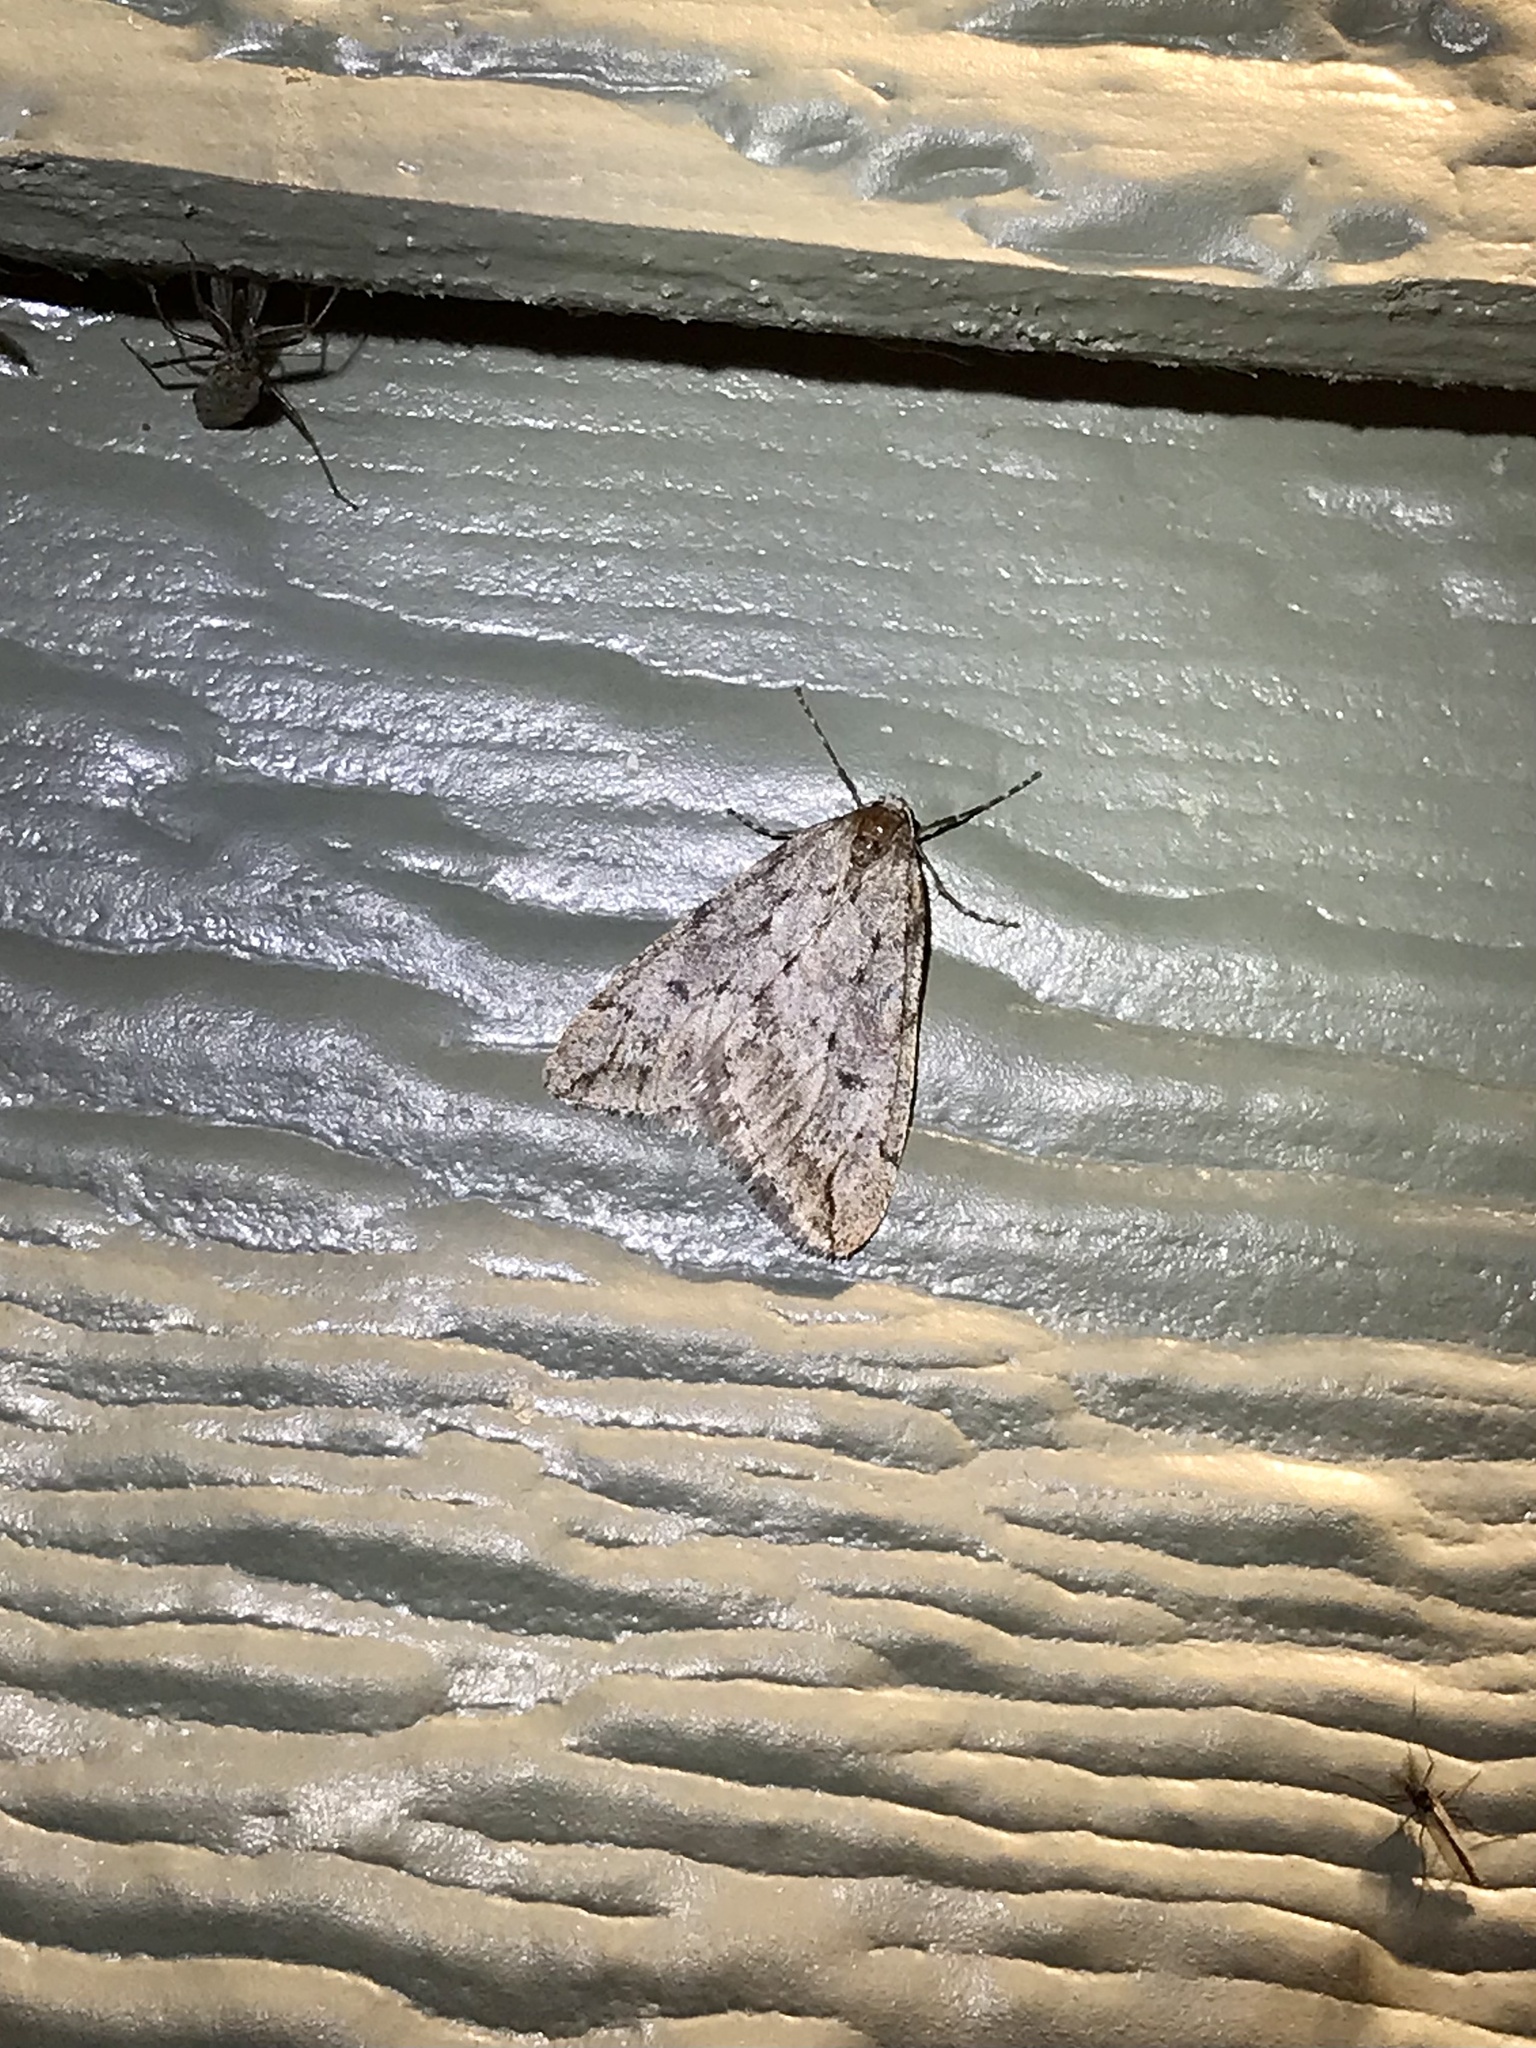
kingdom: Animalia
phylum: Arthropoda
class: Insecta
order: Lepidoptera
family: Geometridae
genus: Paleacrita
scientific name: Paleacrita vernata
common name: Spring cankerworm
